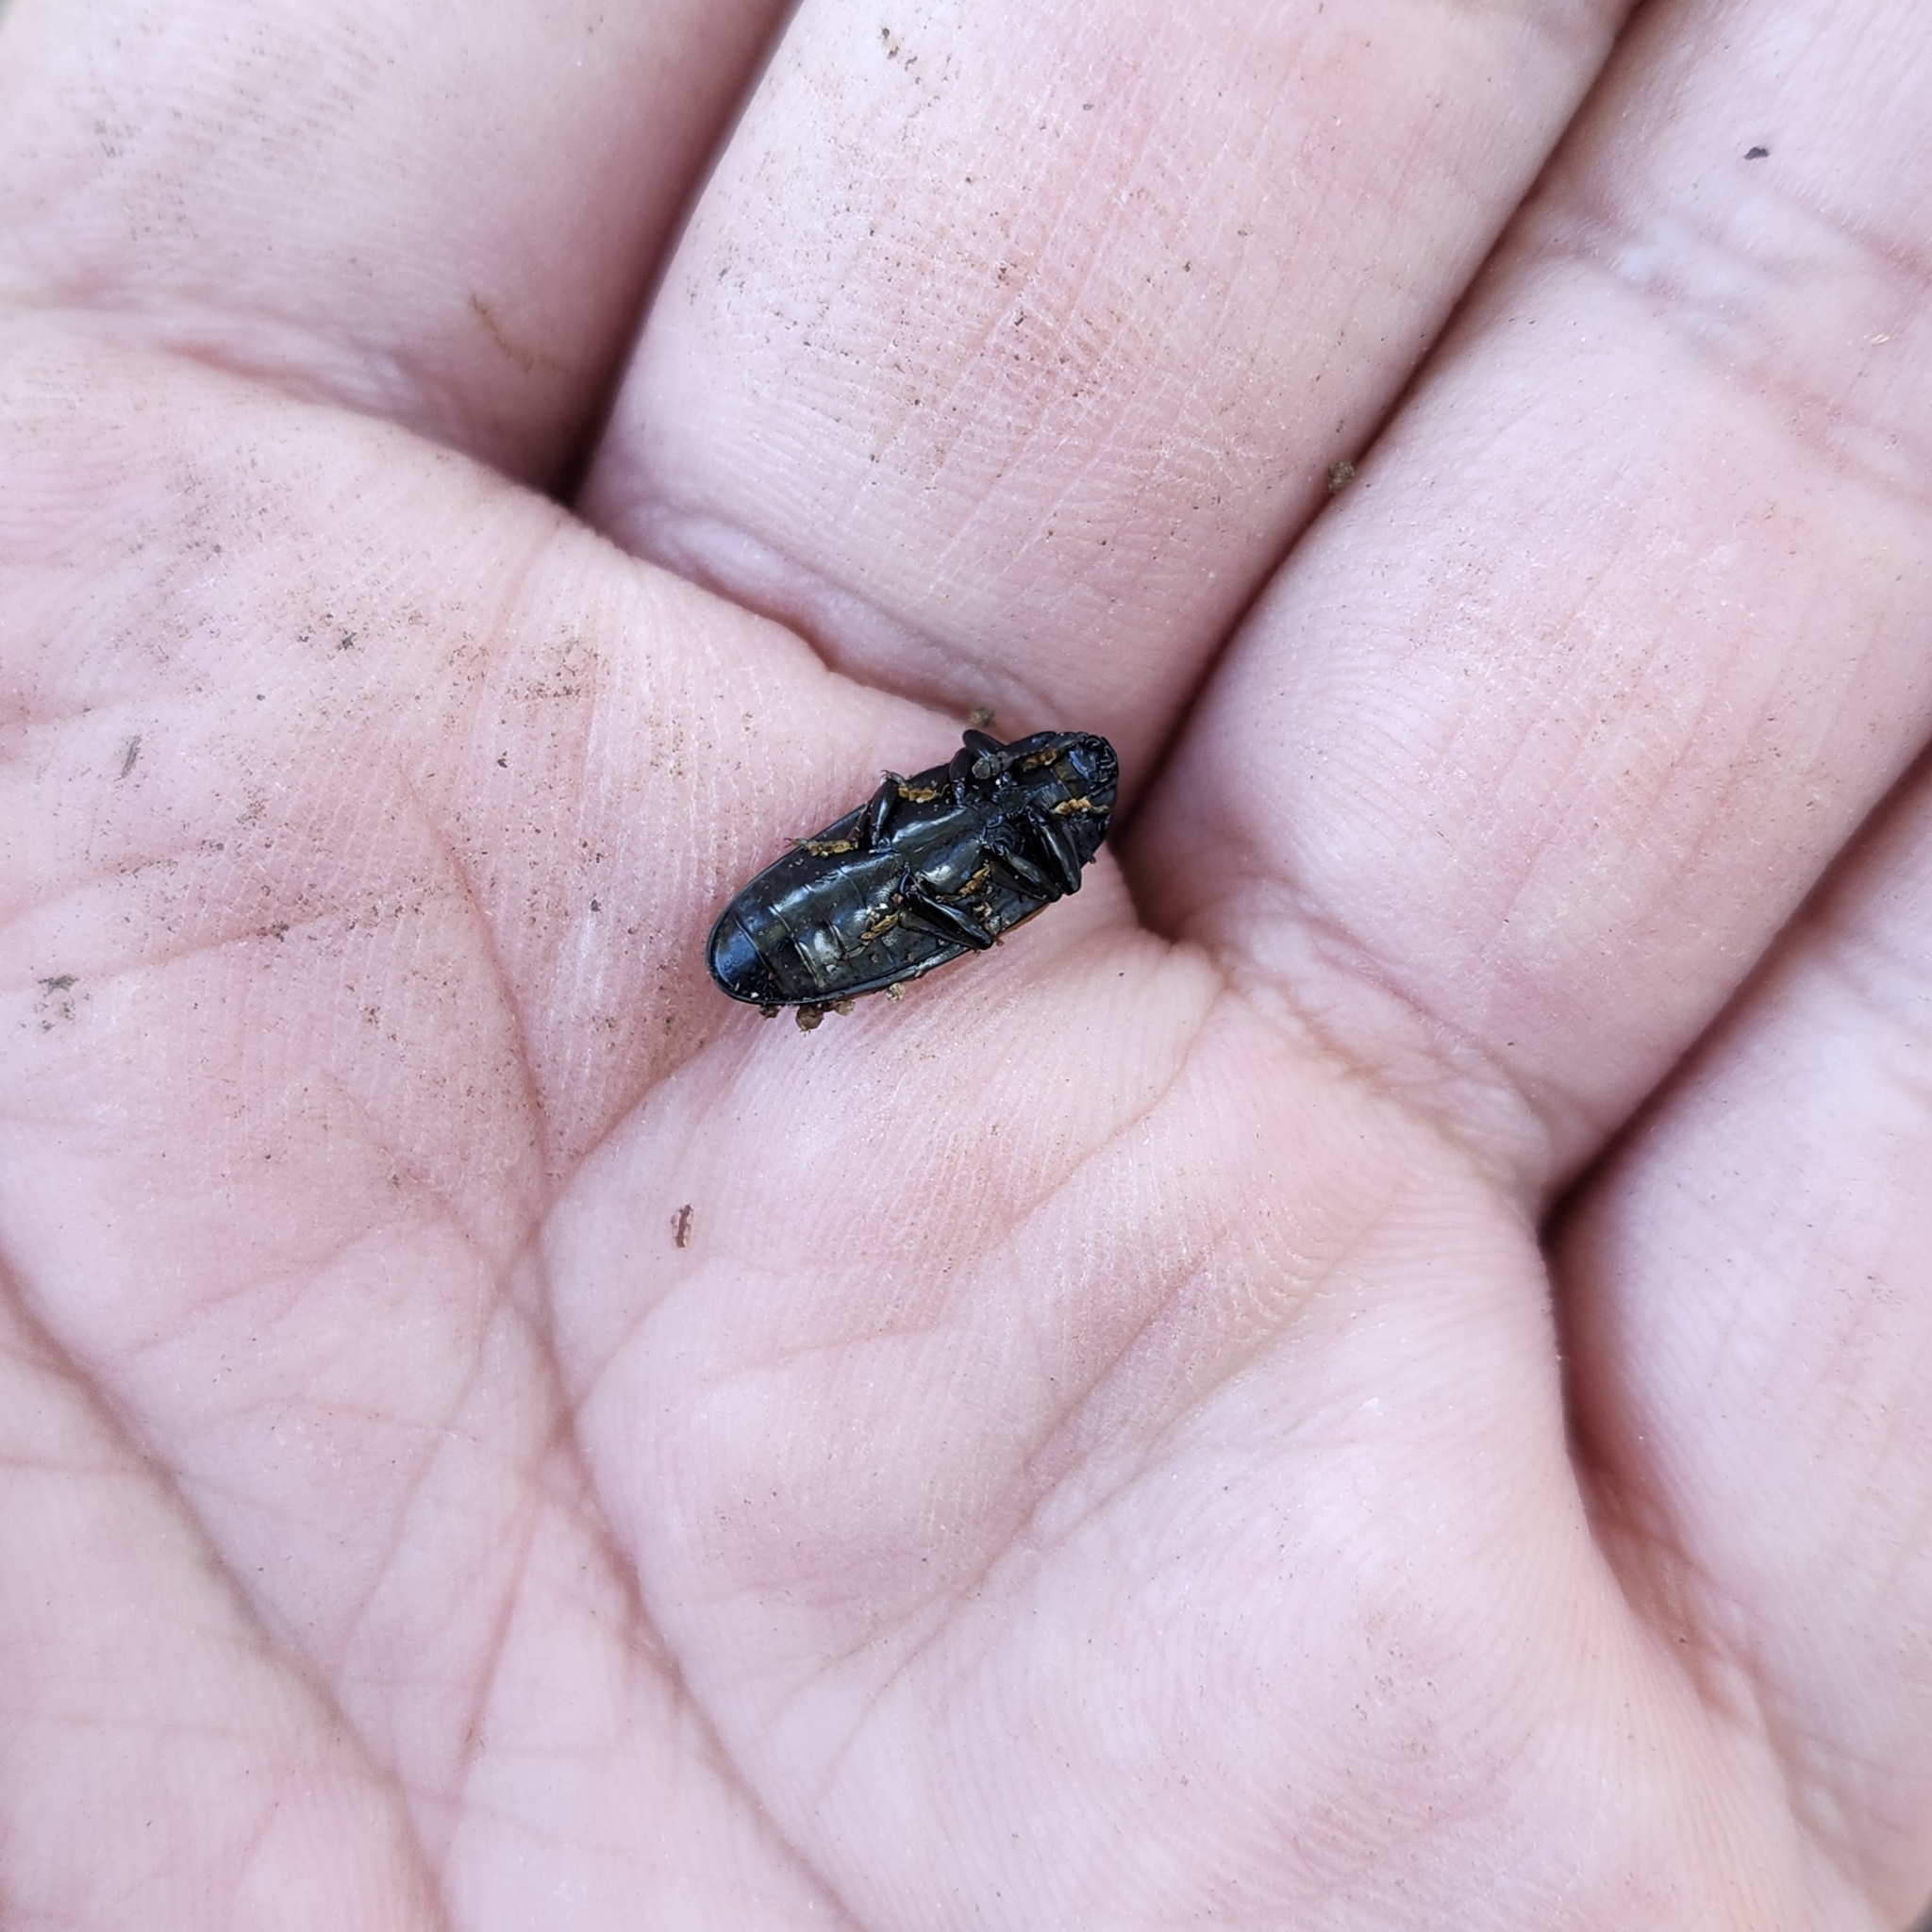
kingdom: Animalia
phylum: Arthropoda
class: Insecta
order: Coleoptera
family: Erotylidae
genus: Megalodacne
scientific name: Megalodacne fasciata
